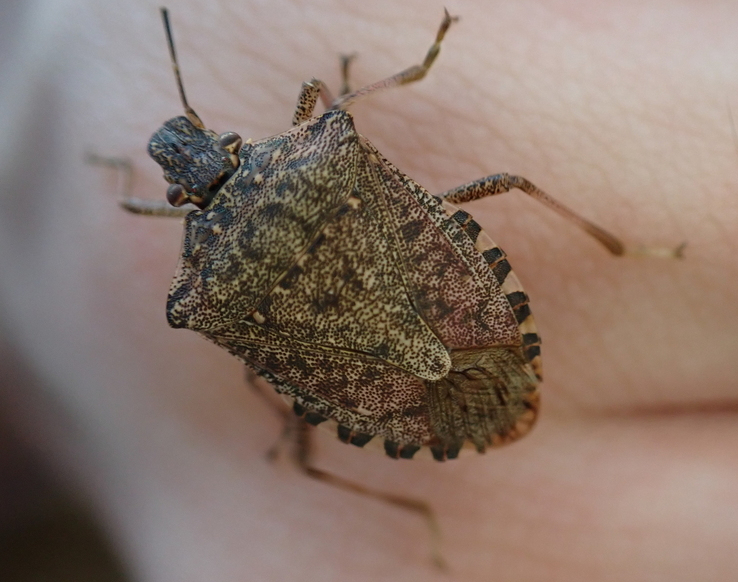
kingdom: Animalia
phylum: Arthropoda
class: Insecta
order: Hemiptera
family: Pentatomidae
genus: Halyomorpha
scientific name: Halyomorpha halys
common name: Brown marmorated stink bug
